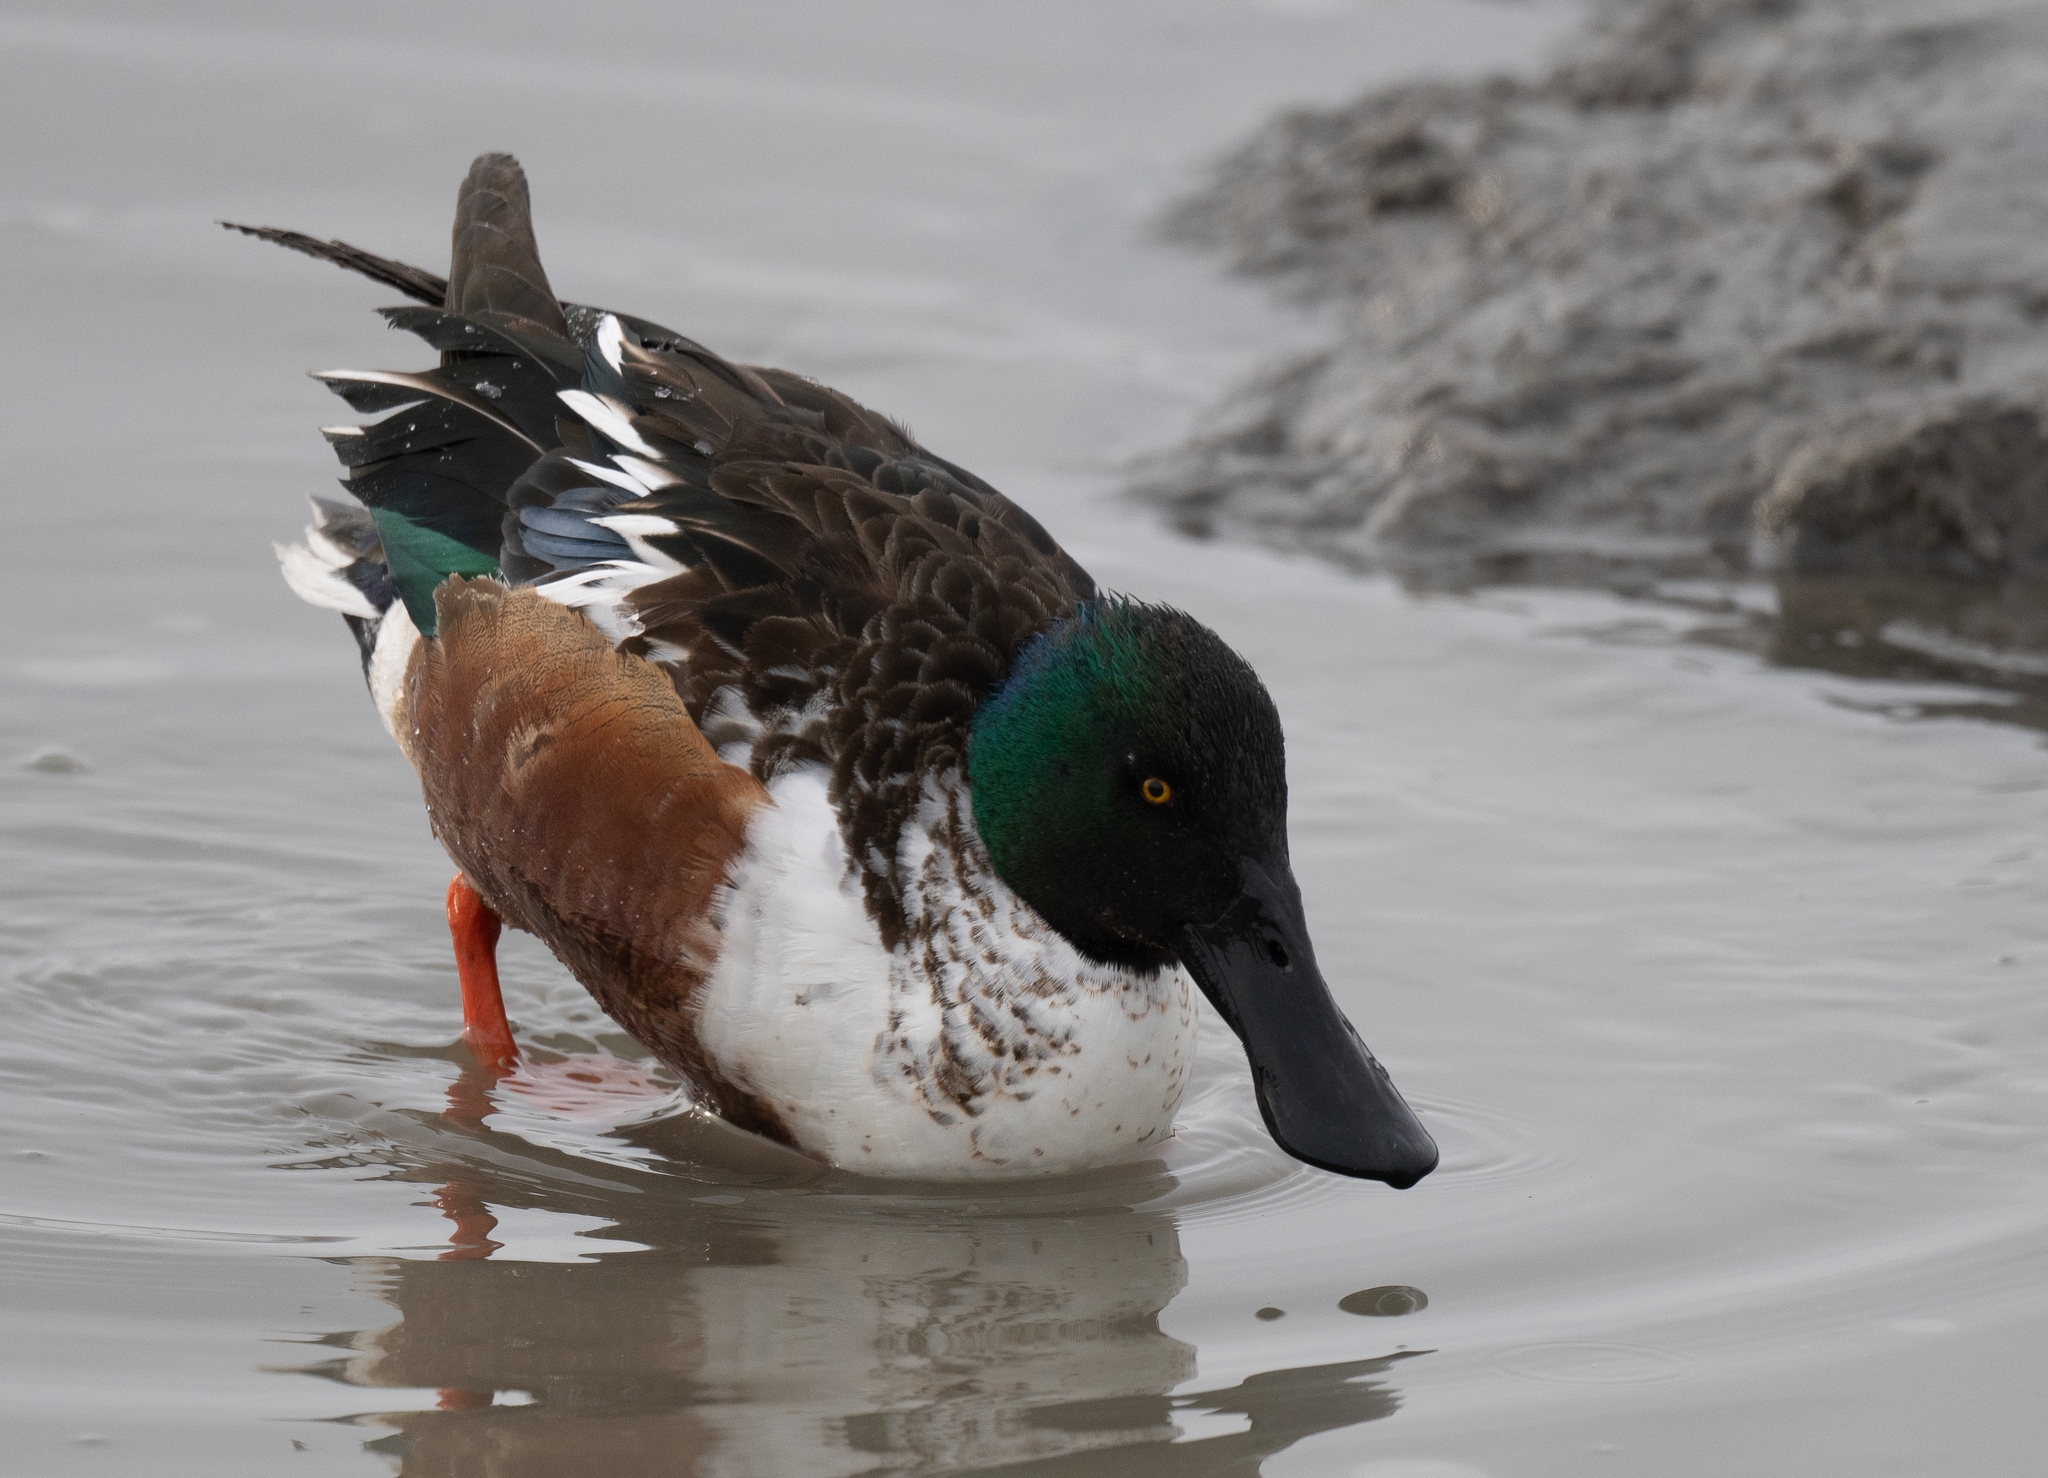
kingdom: Animalia
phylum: Chordata
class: Aves
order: Anseriformes
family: Anatidae
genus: Spatula
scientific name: Spatula clypeata
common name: Northern shoveler
